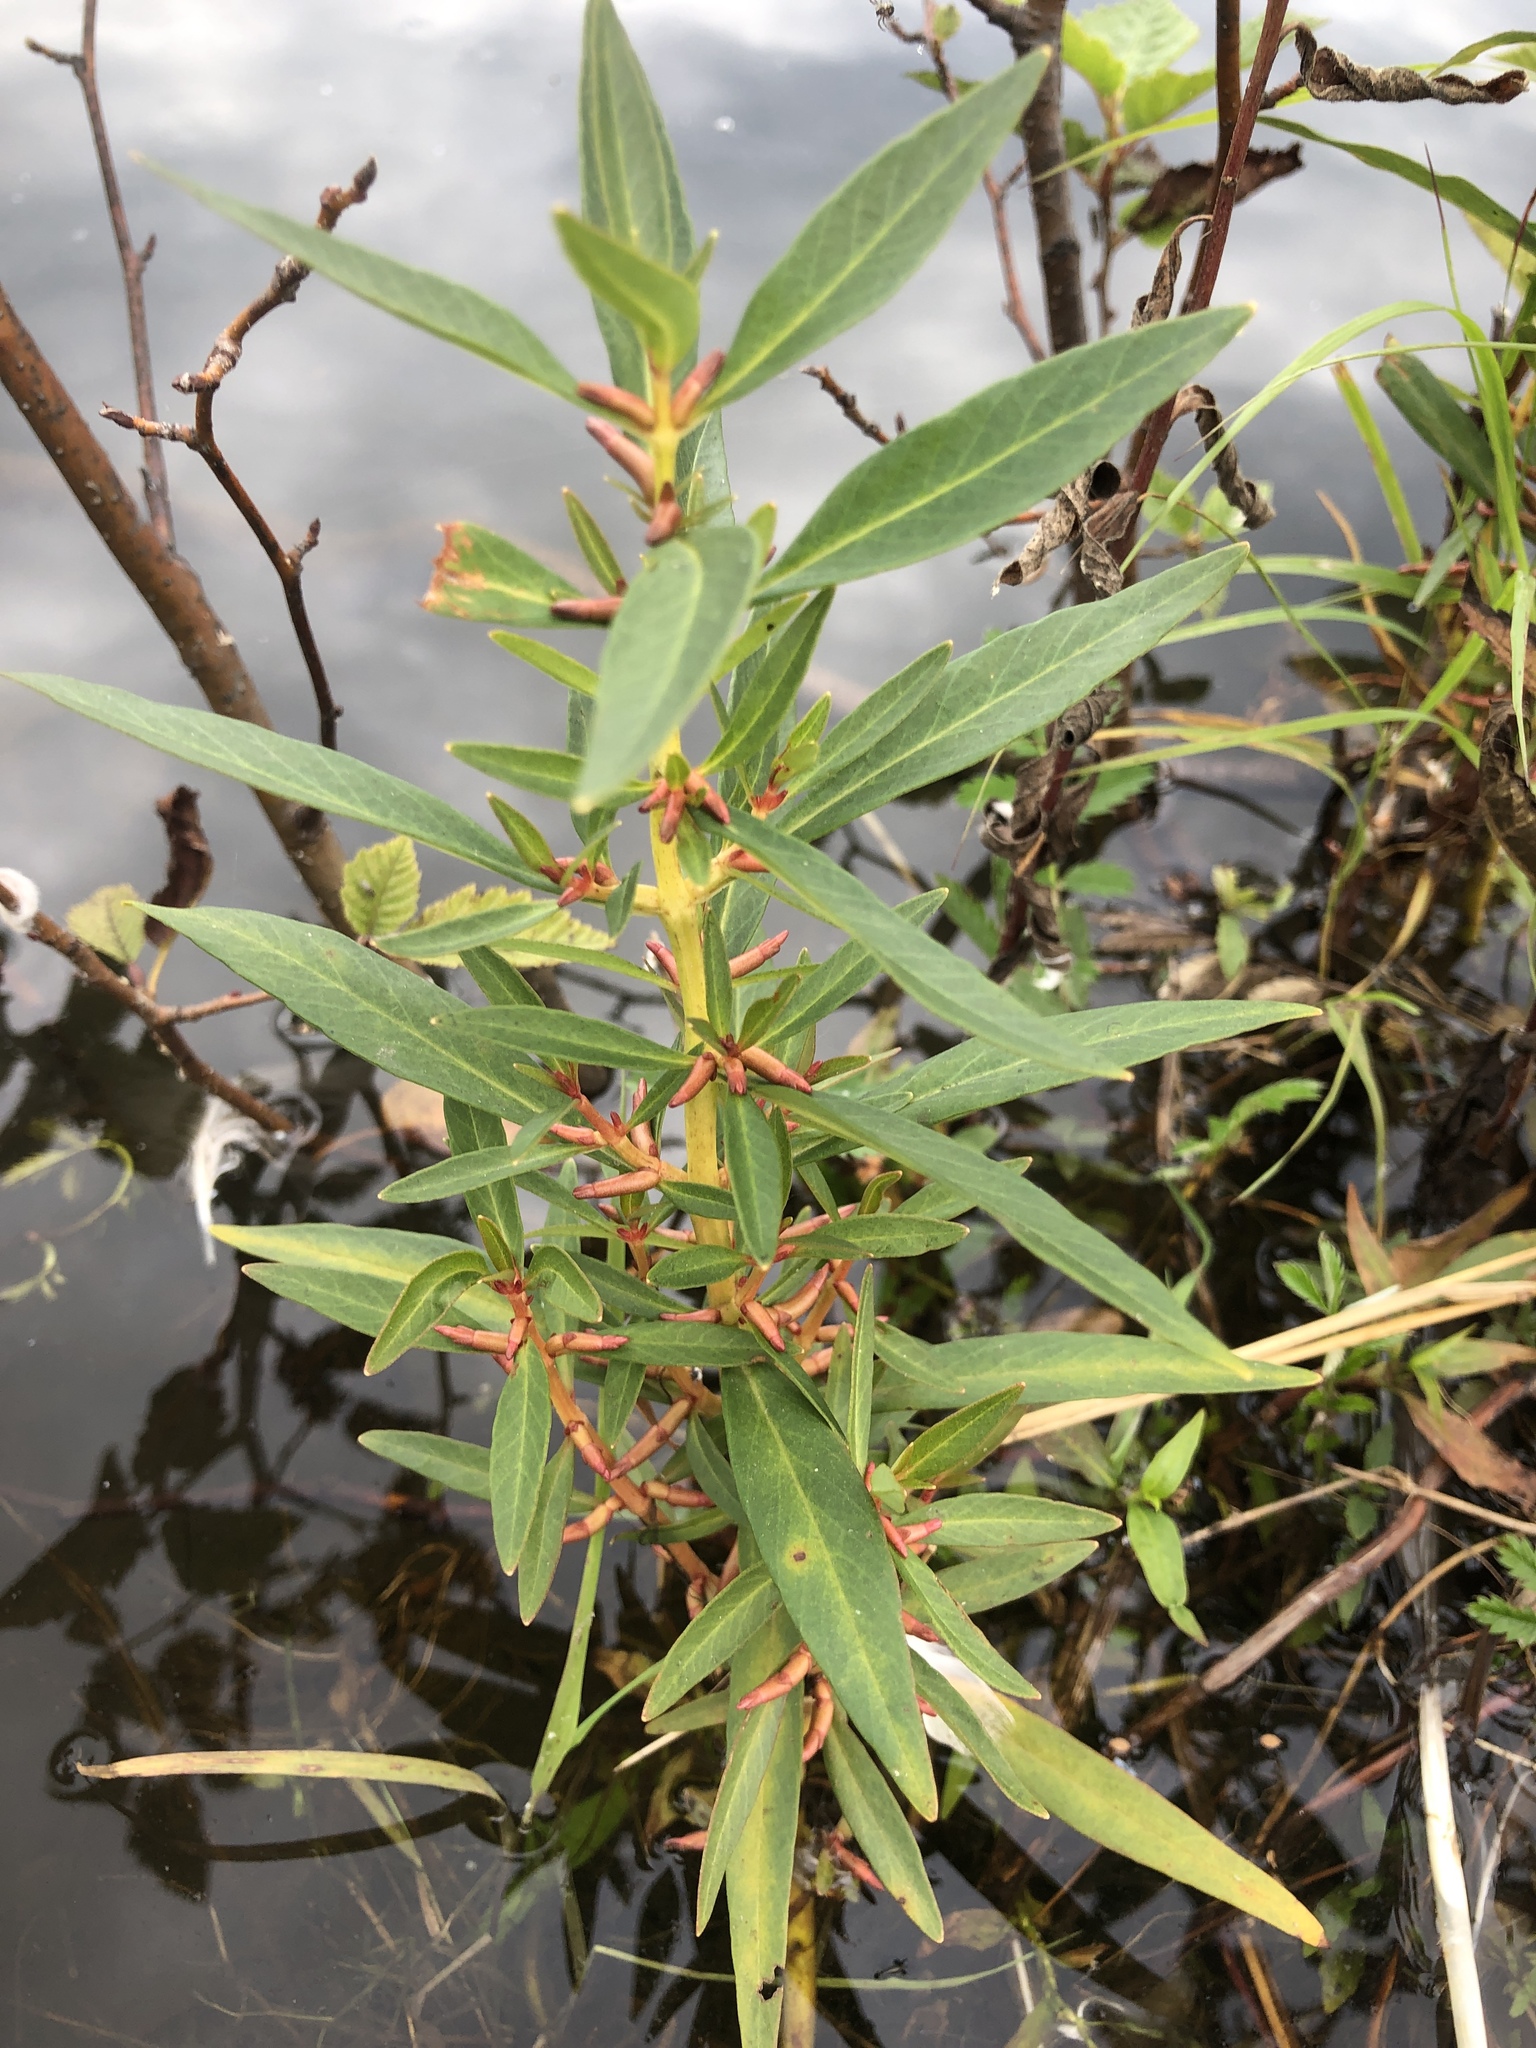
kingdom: Plantae
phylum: Tracheophyta
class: Magnoliopsida
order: Ericales
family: Primulaceae
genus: Lysimachia
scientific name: Lysimachia terrestris
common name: Lake loosestrife
